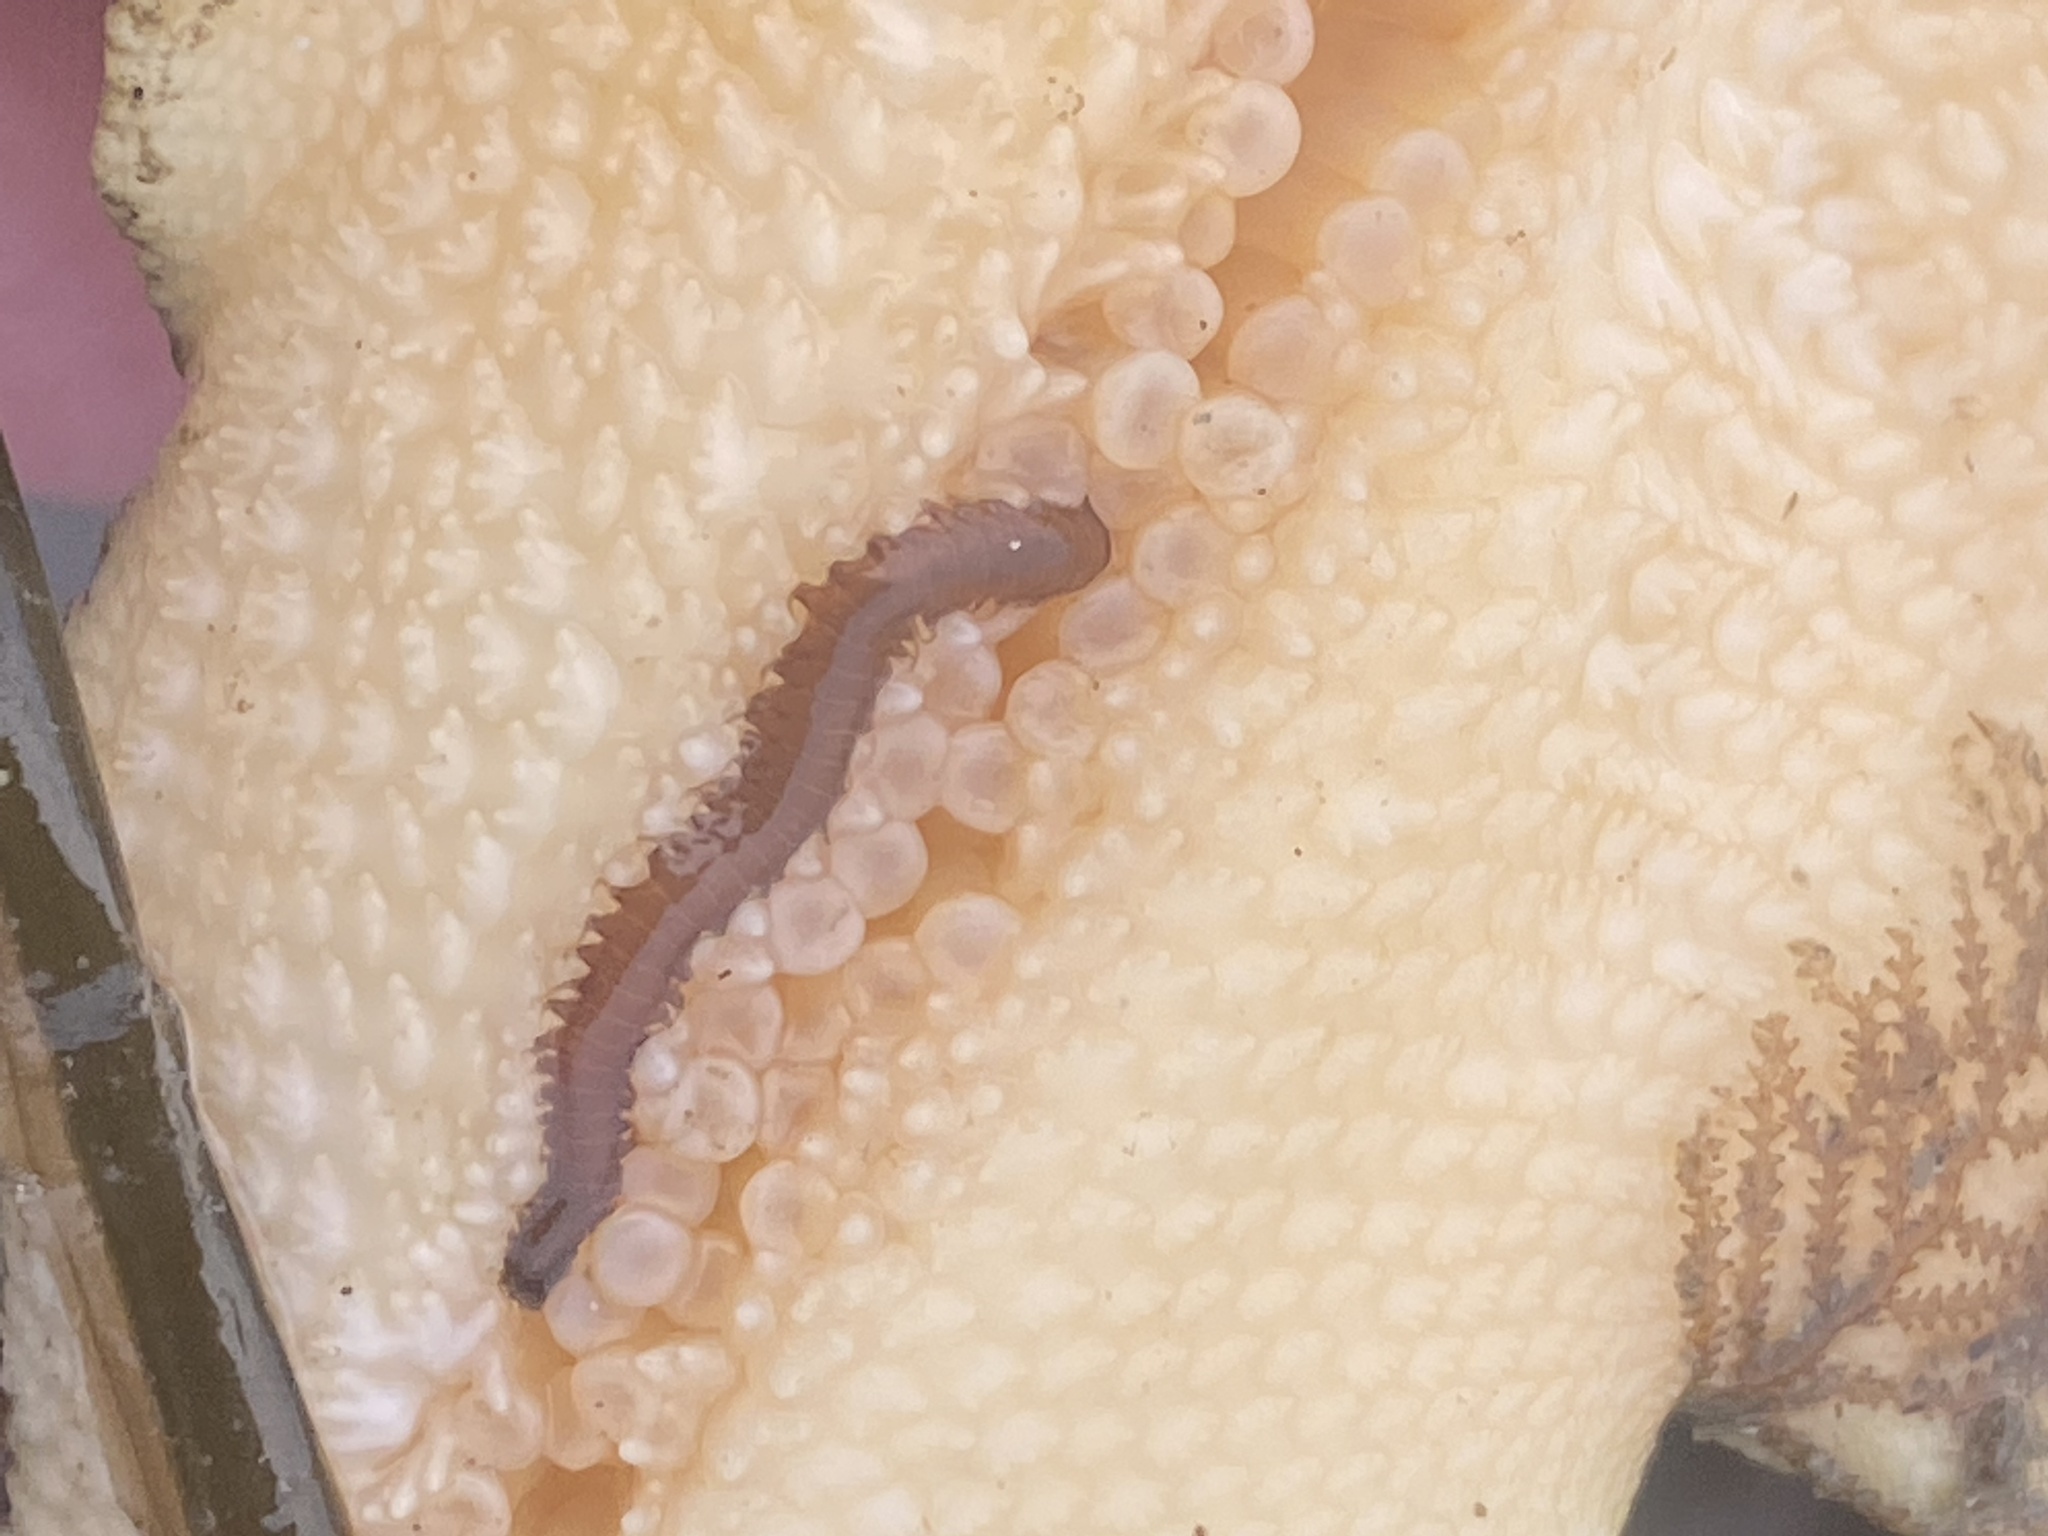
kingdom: Animalia
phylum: Annelida
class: Polychaeta
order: Phyllodocida
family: Hesionidae
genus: Oxydromus
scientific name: Oxydromus pugettensis
